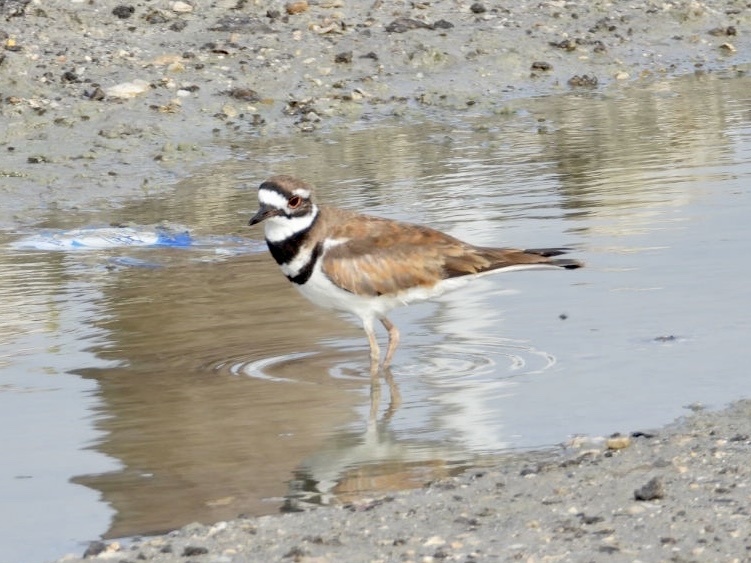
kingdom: Animalia
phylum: Chordata
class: Aves
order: Charadriiformes
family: Charadriidae
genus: Charadrius
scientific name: Charadrius vociferus
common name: Killdeer
